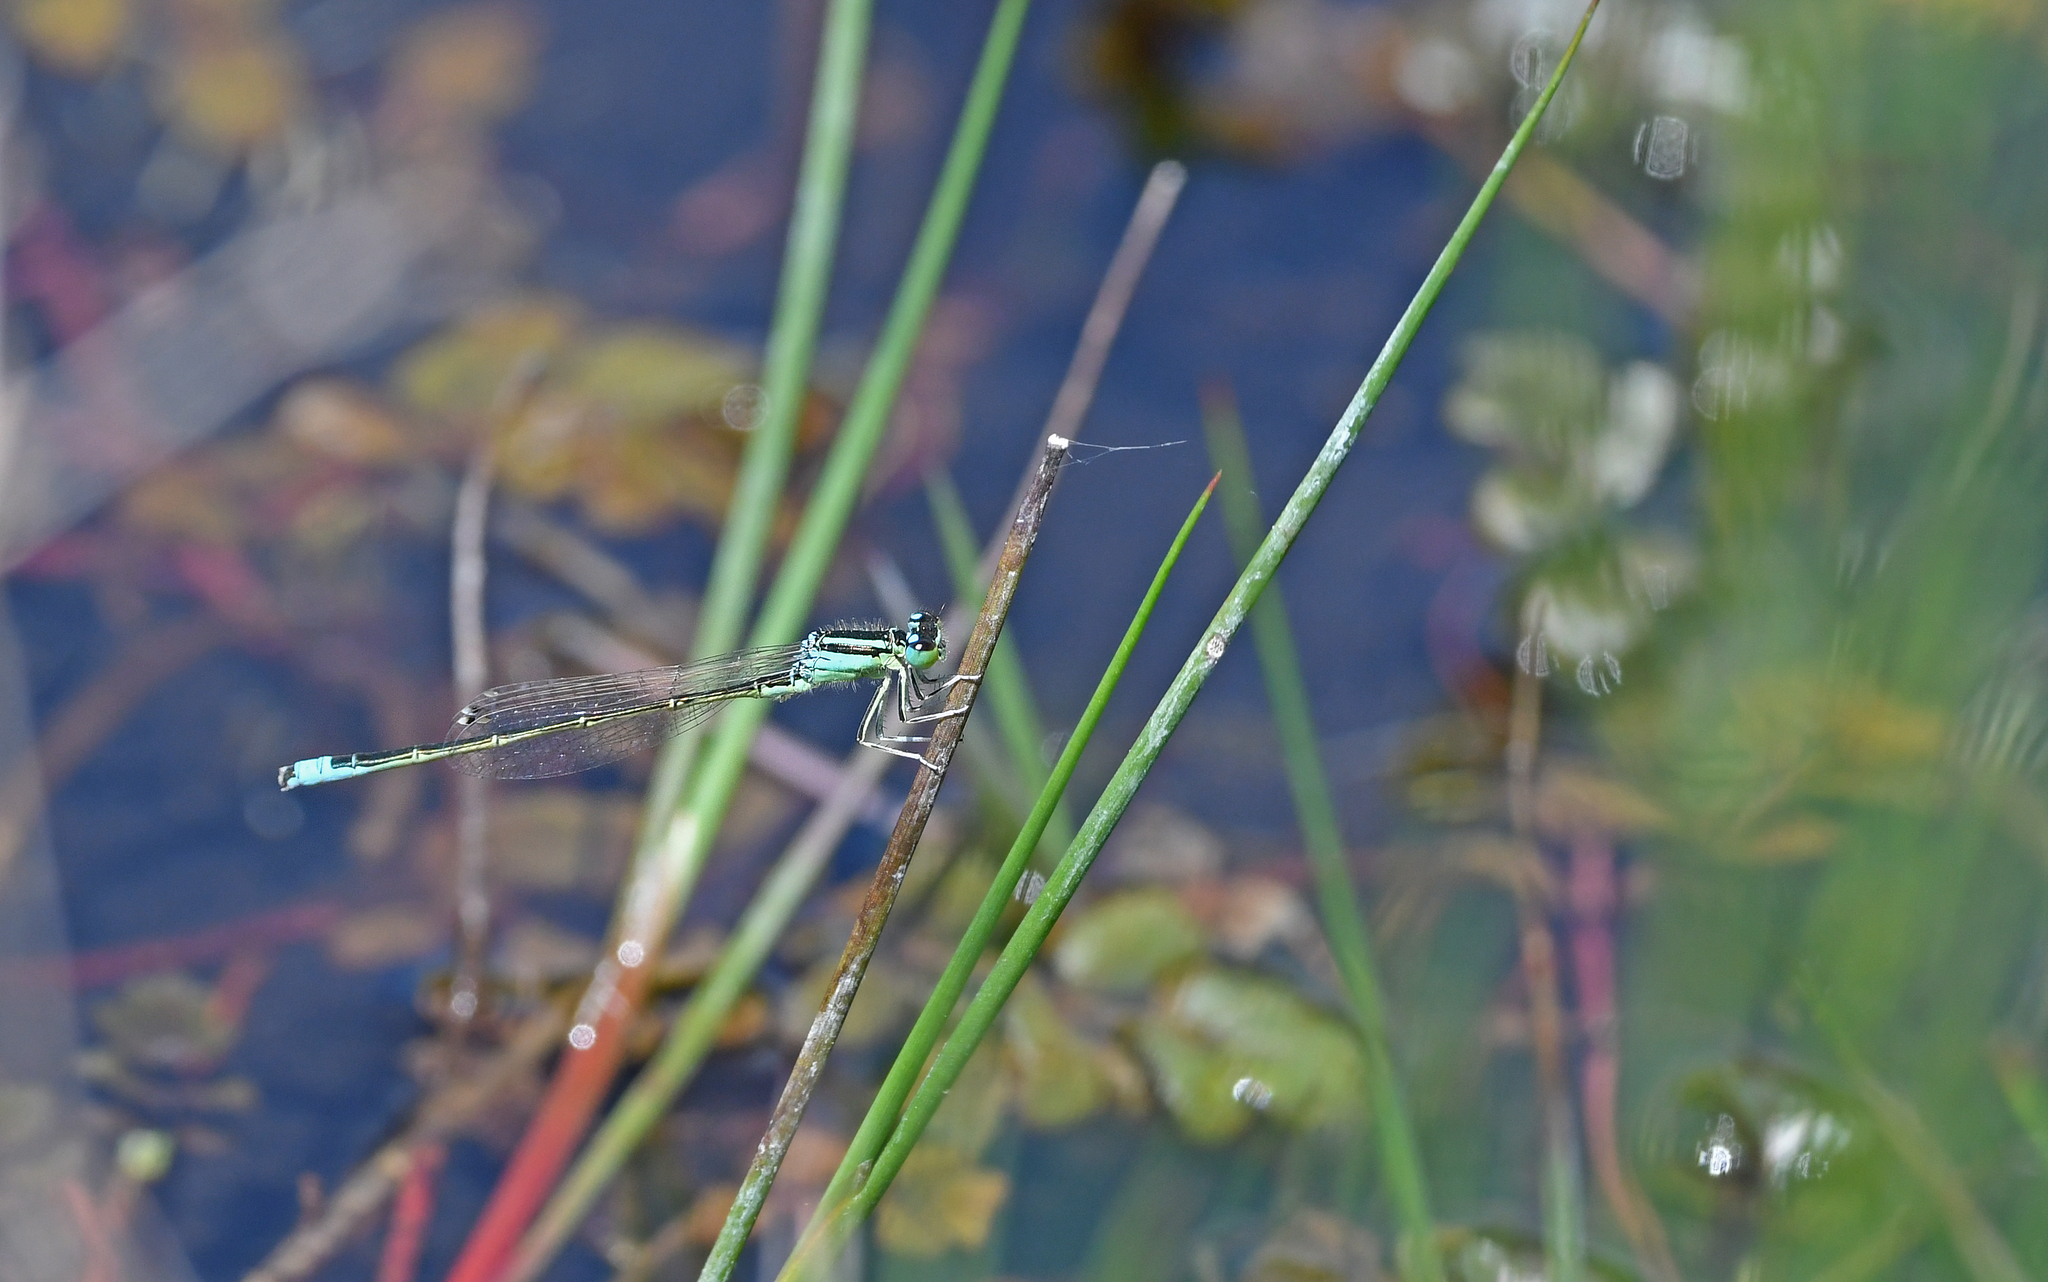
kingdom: Animalia
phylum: Arthropoda
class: Insecta
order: Odonata
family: Coenagrionidae
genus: Ischnura
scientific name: Ischnura pumilio
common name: Scarce blue-tailed damselfly
